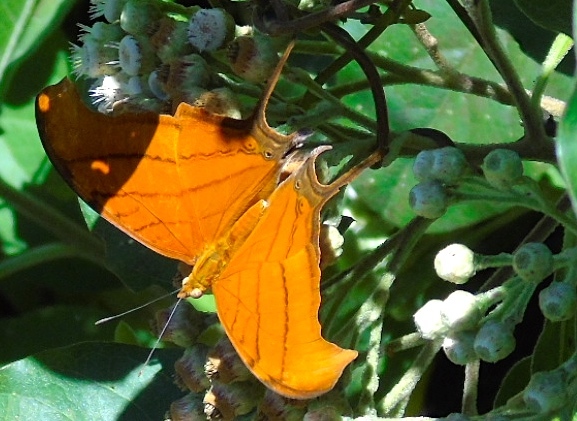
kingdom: Animalia
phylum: Arthropoda
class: Insecta
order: Lepidoptera
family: Nymphalidae
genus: Marpesia
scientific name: Marpesia petreus
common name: Red dagger wing
